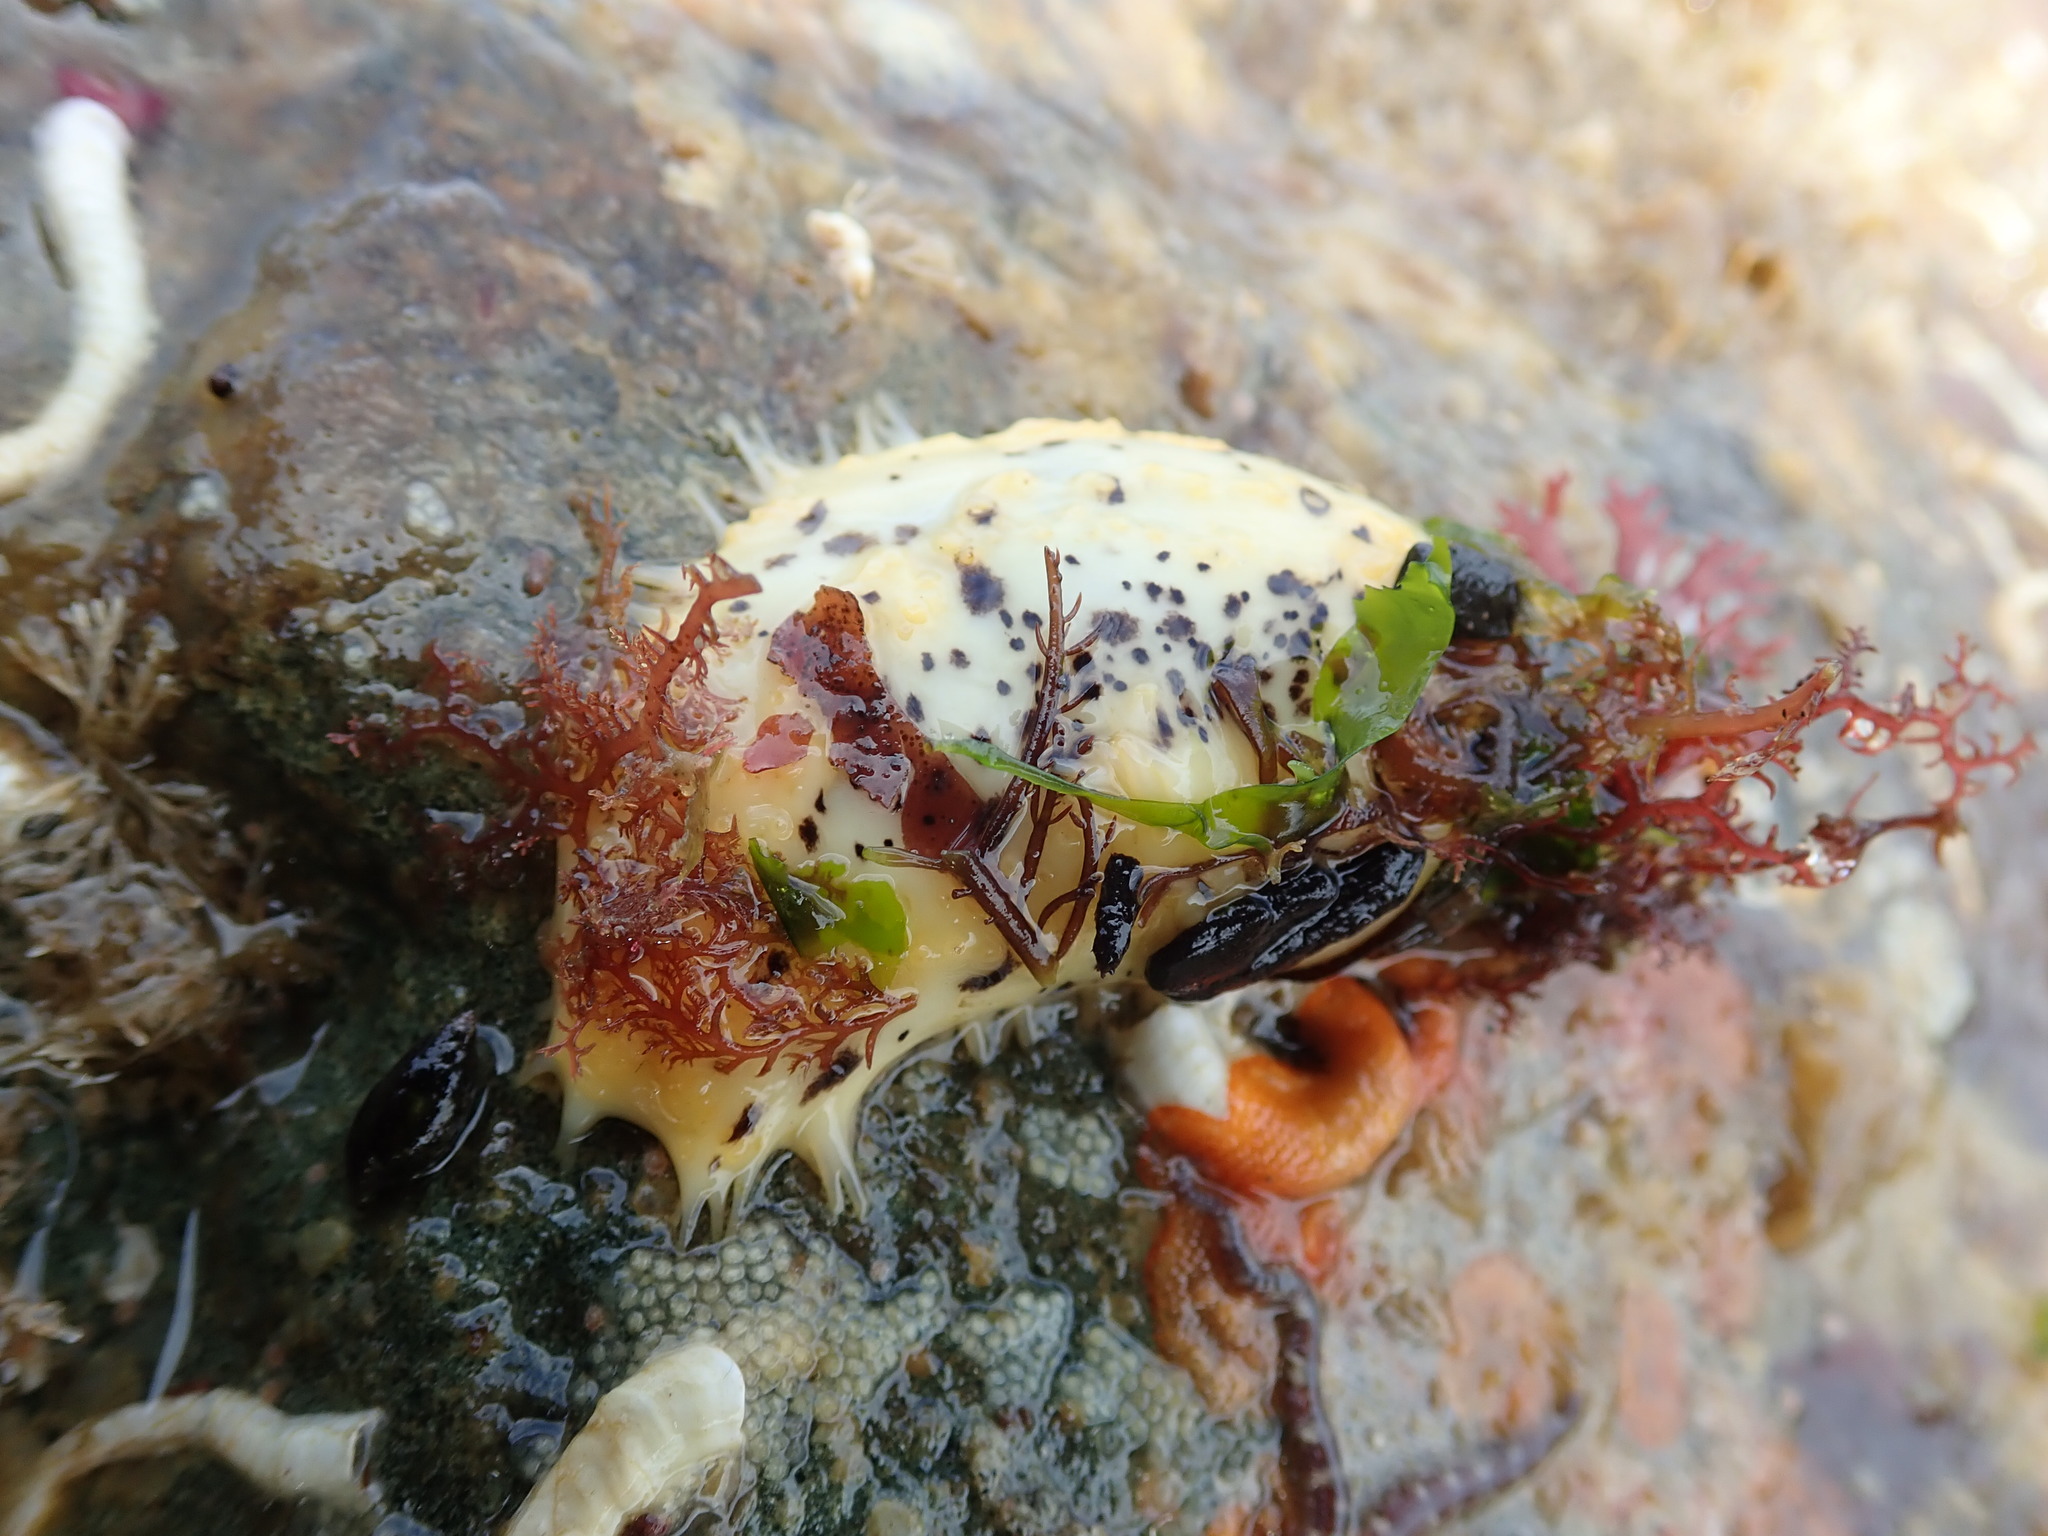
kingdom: Animalia
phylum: Echinodermata
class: Holothuroidea
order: Dendrochirotida
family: Cucumariidae
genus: Cucumaria
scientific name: Cucumaria piperata
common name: Peppered sea cucumber
